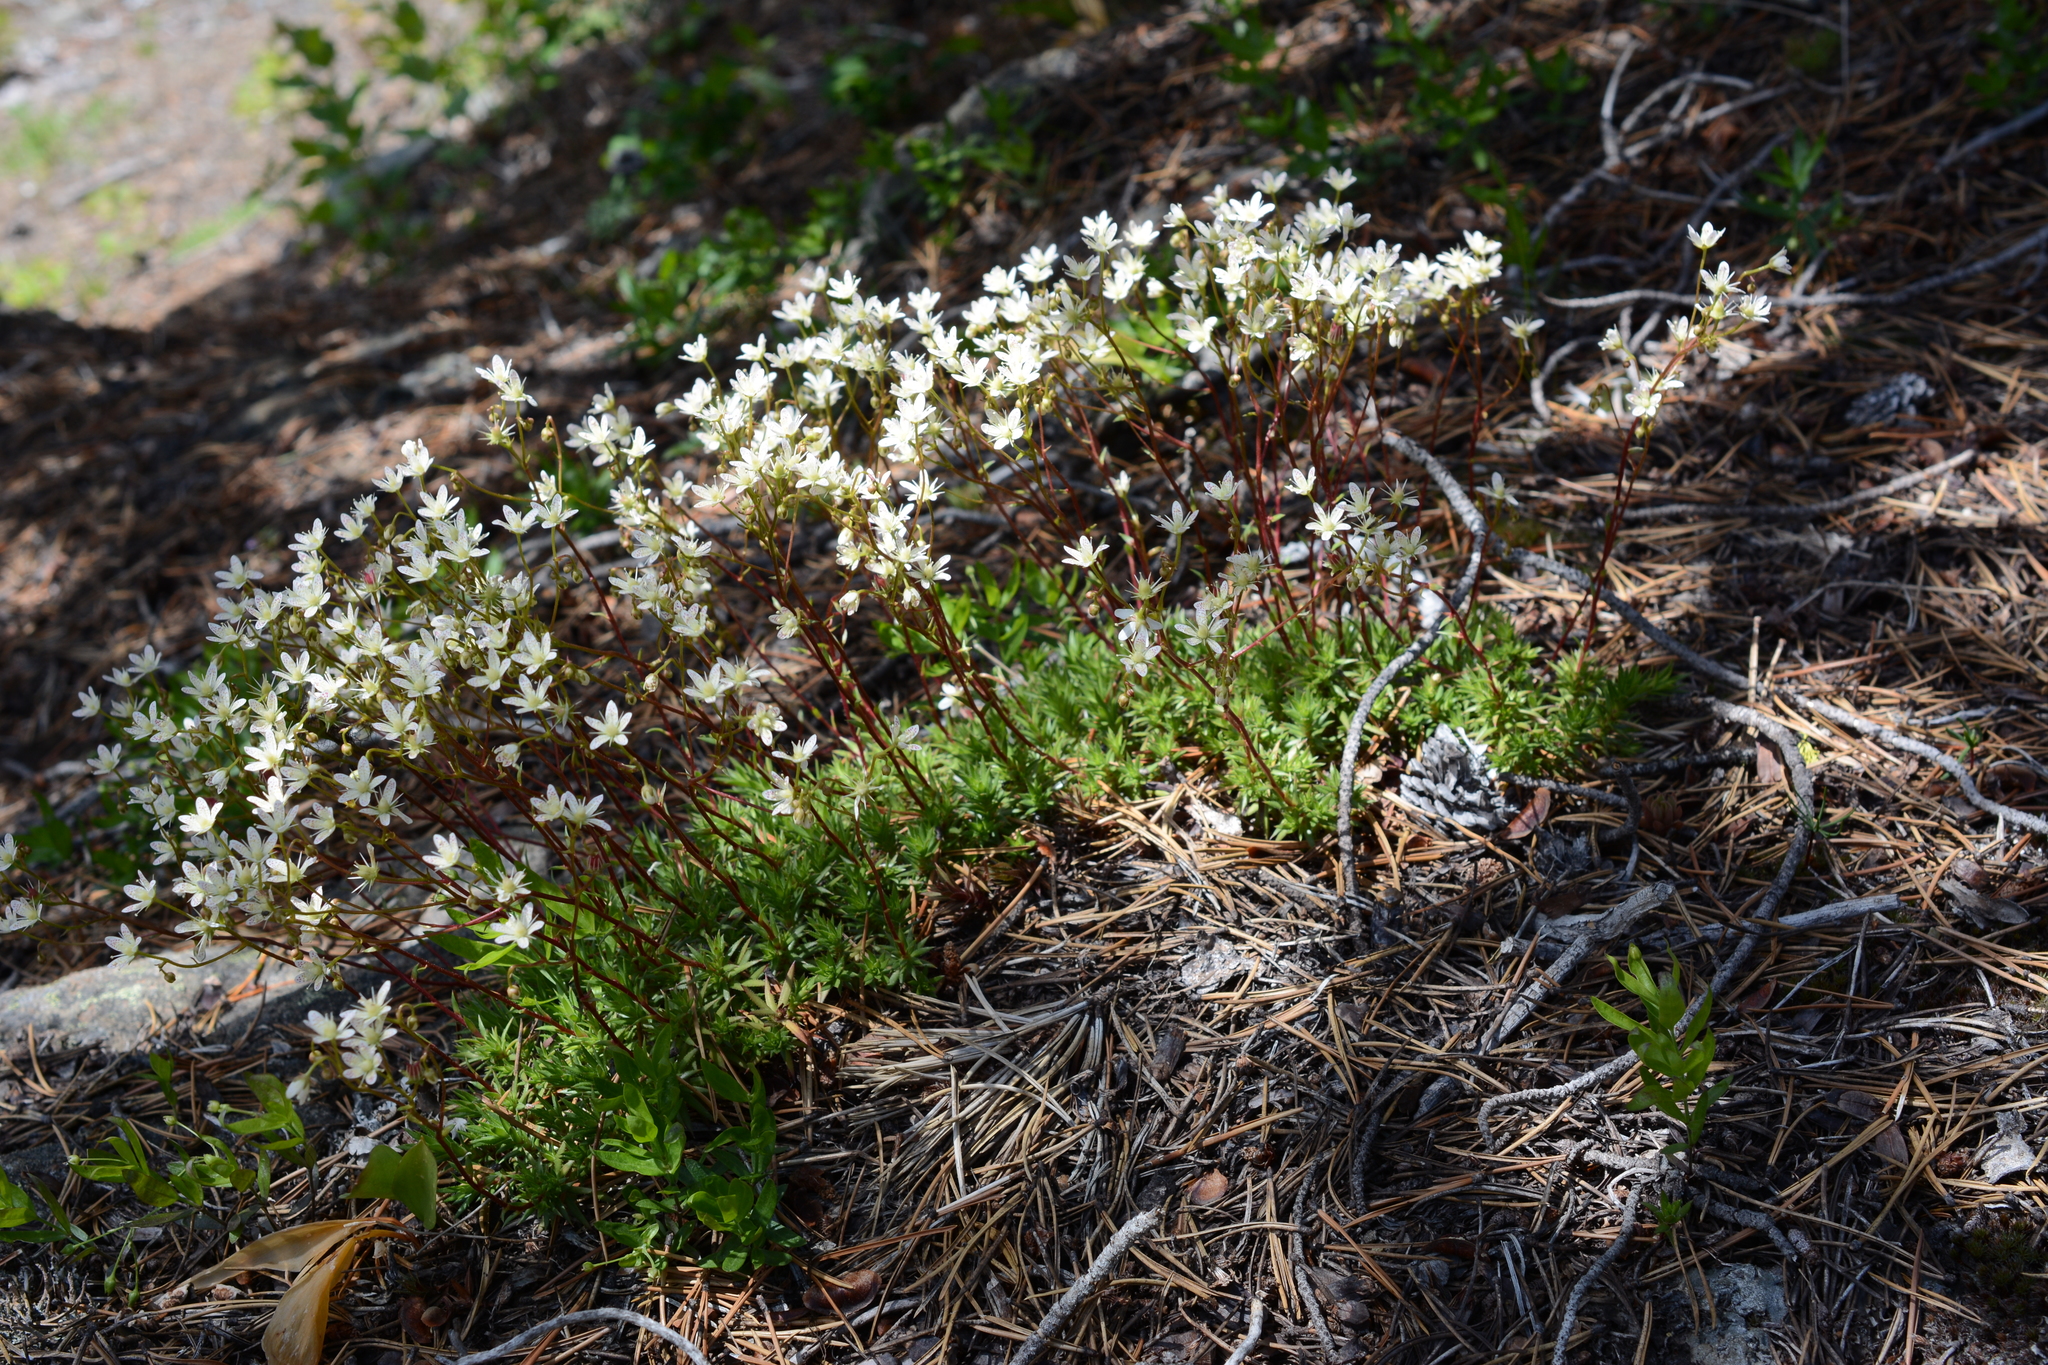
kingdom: Plantae
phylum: Tracheophyta
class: Magnoliopsida
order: Saxifragales
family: Saxifragaceae
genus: Saxifraga
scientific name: Saxifraga bronchialis
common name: Matted saxifrage
